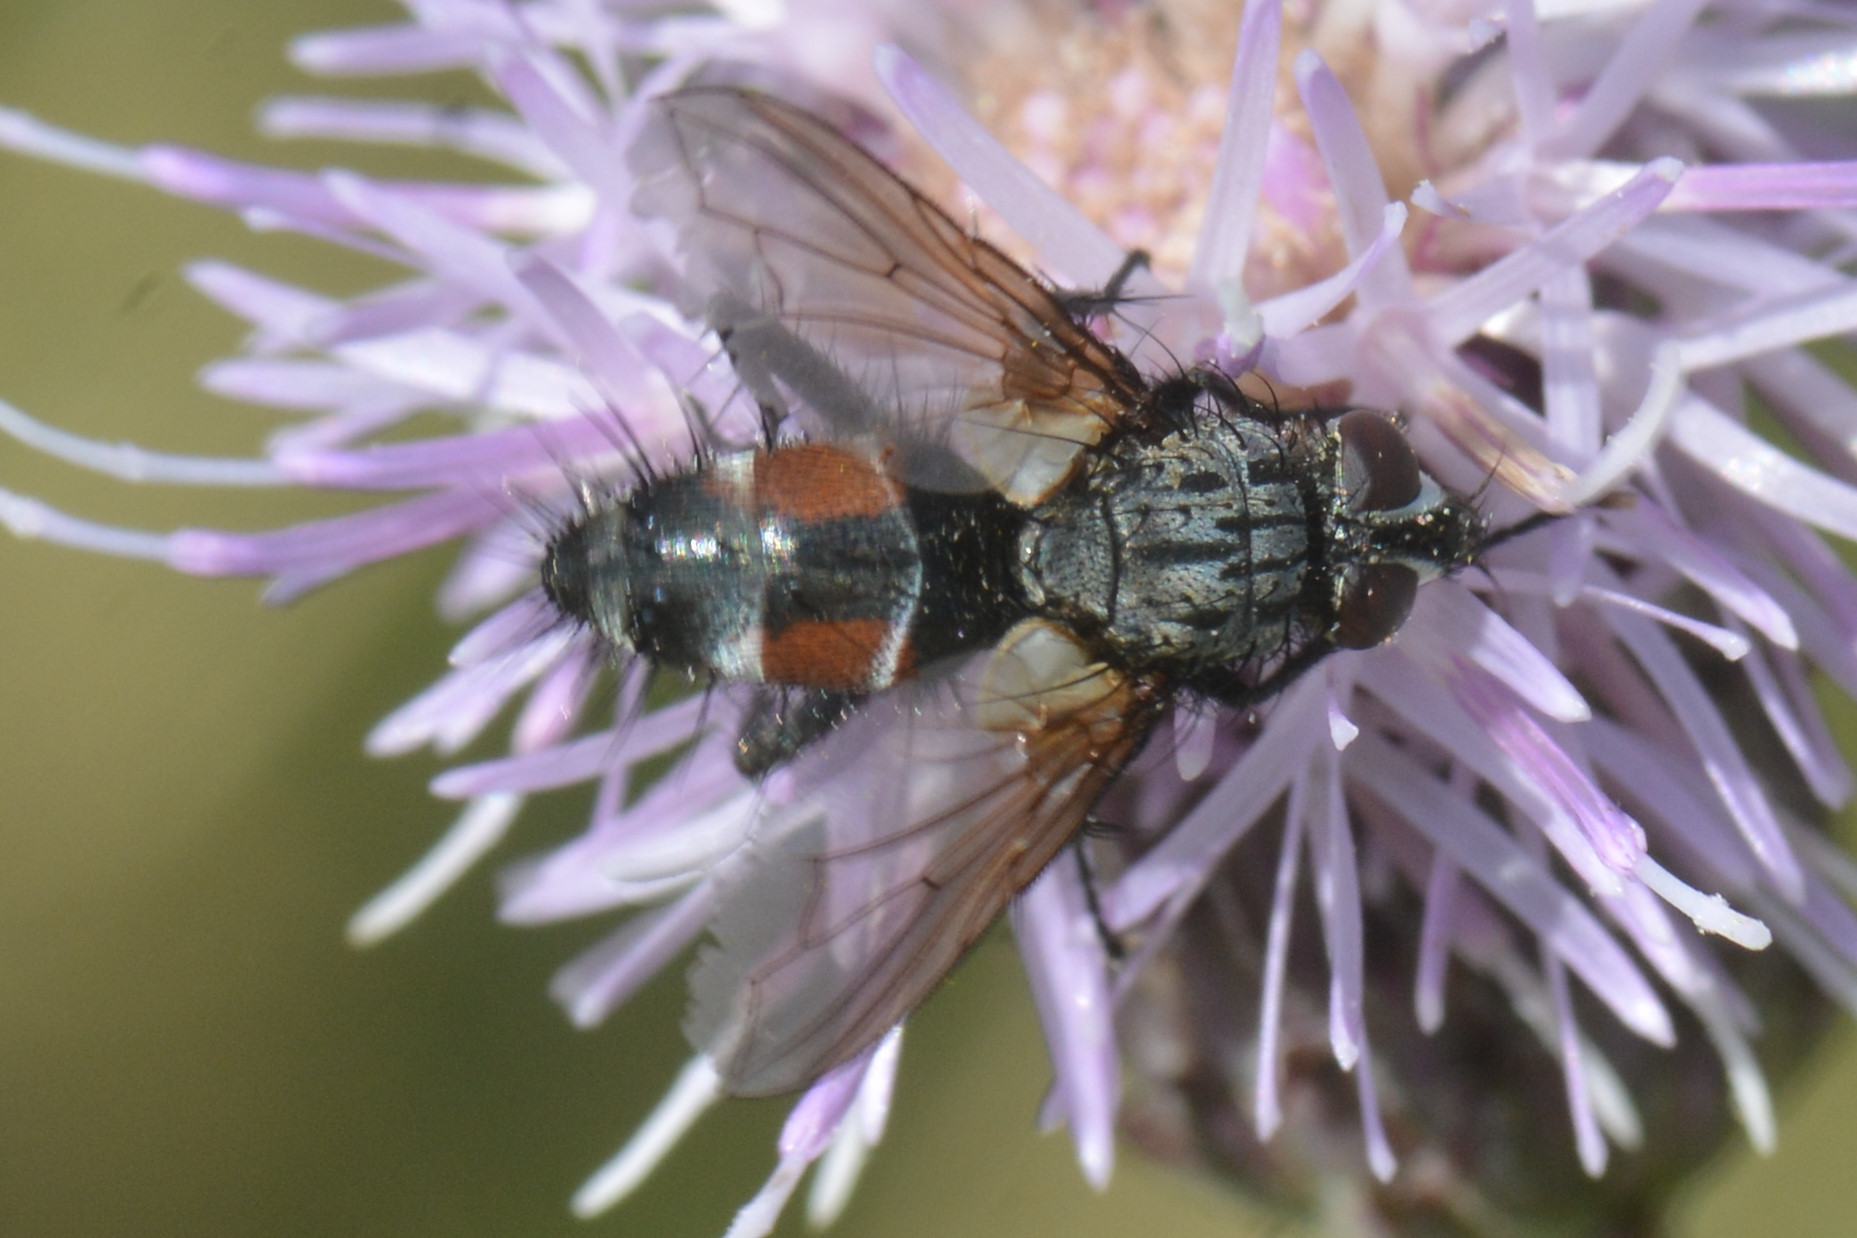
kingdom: Animalia
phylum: Arthropoda
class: Insecta
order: Diptera
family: Tachinidae
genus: Eriothrix
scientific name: Eriothrix rufomaculatus
